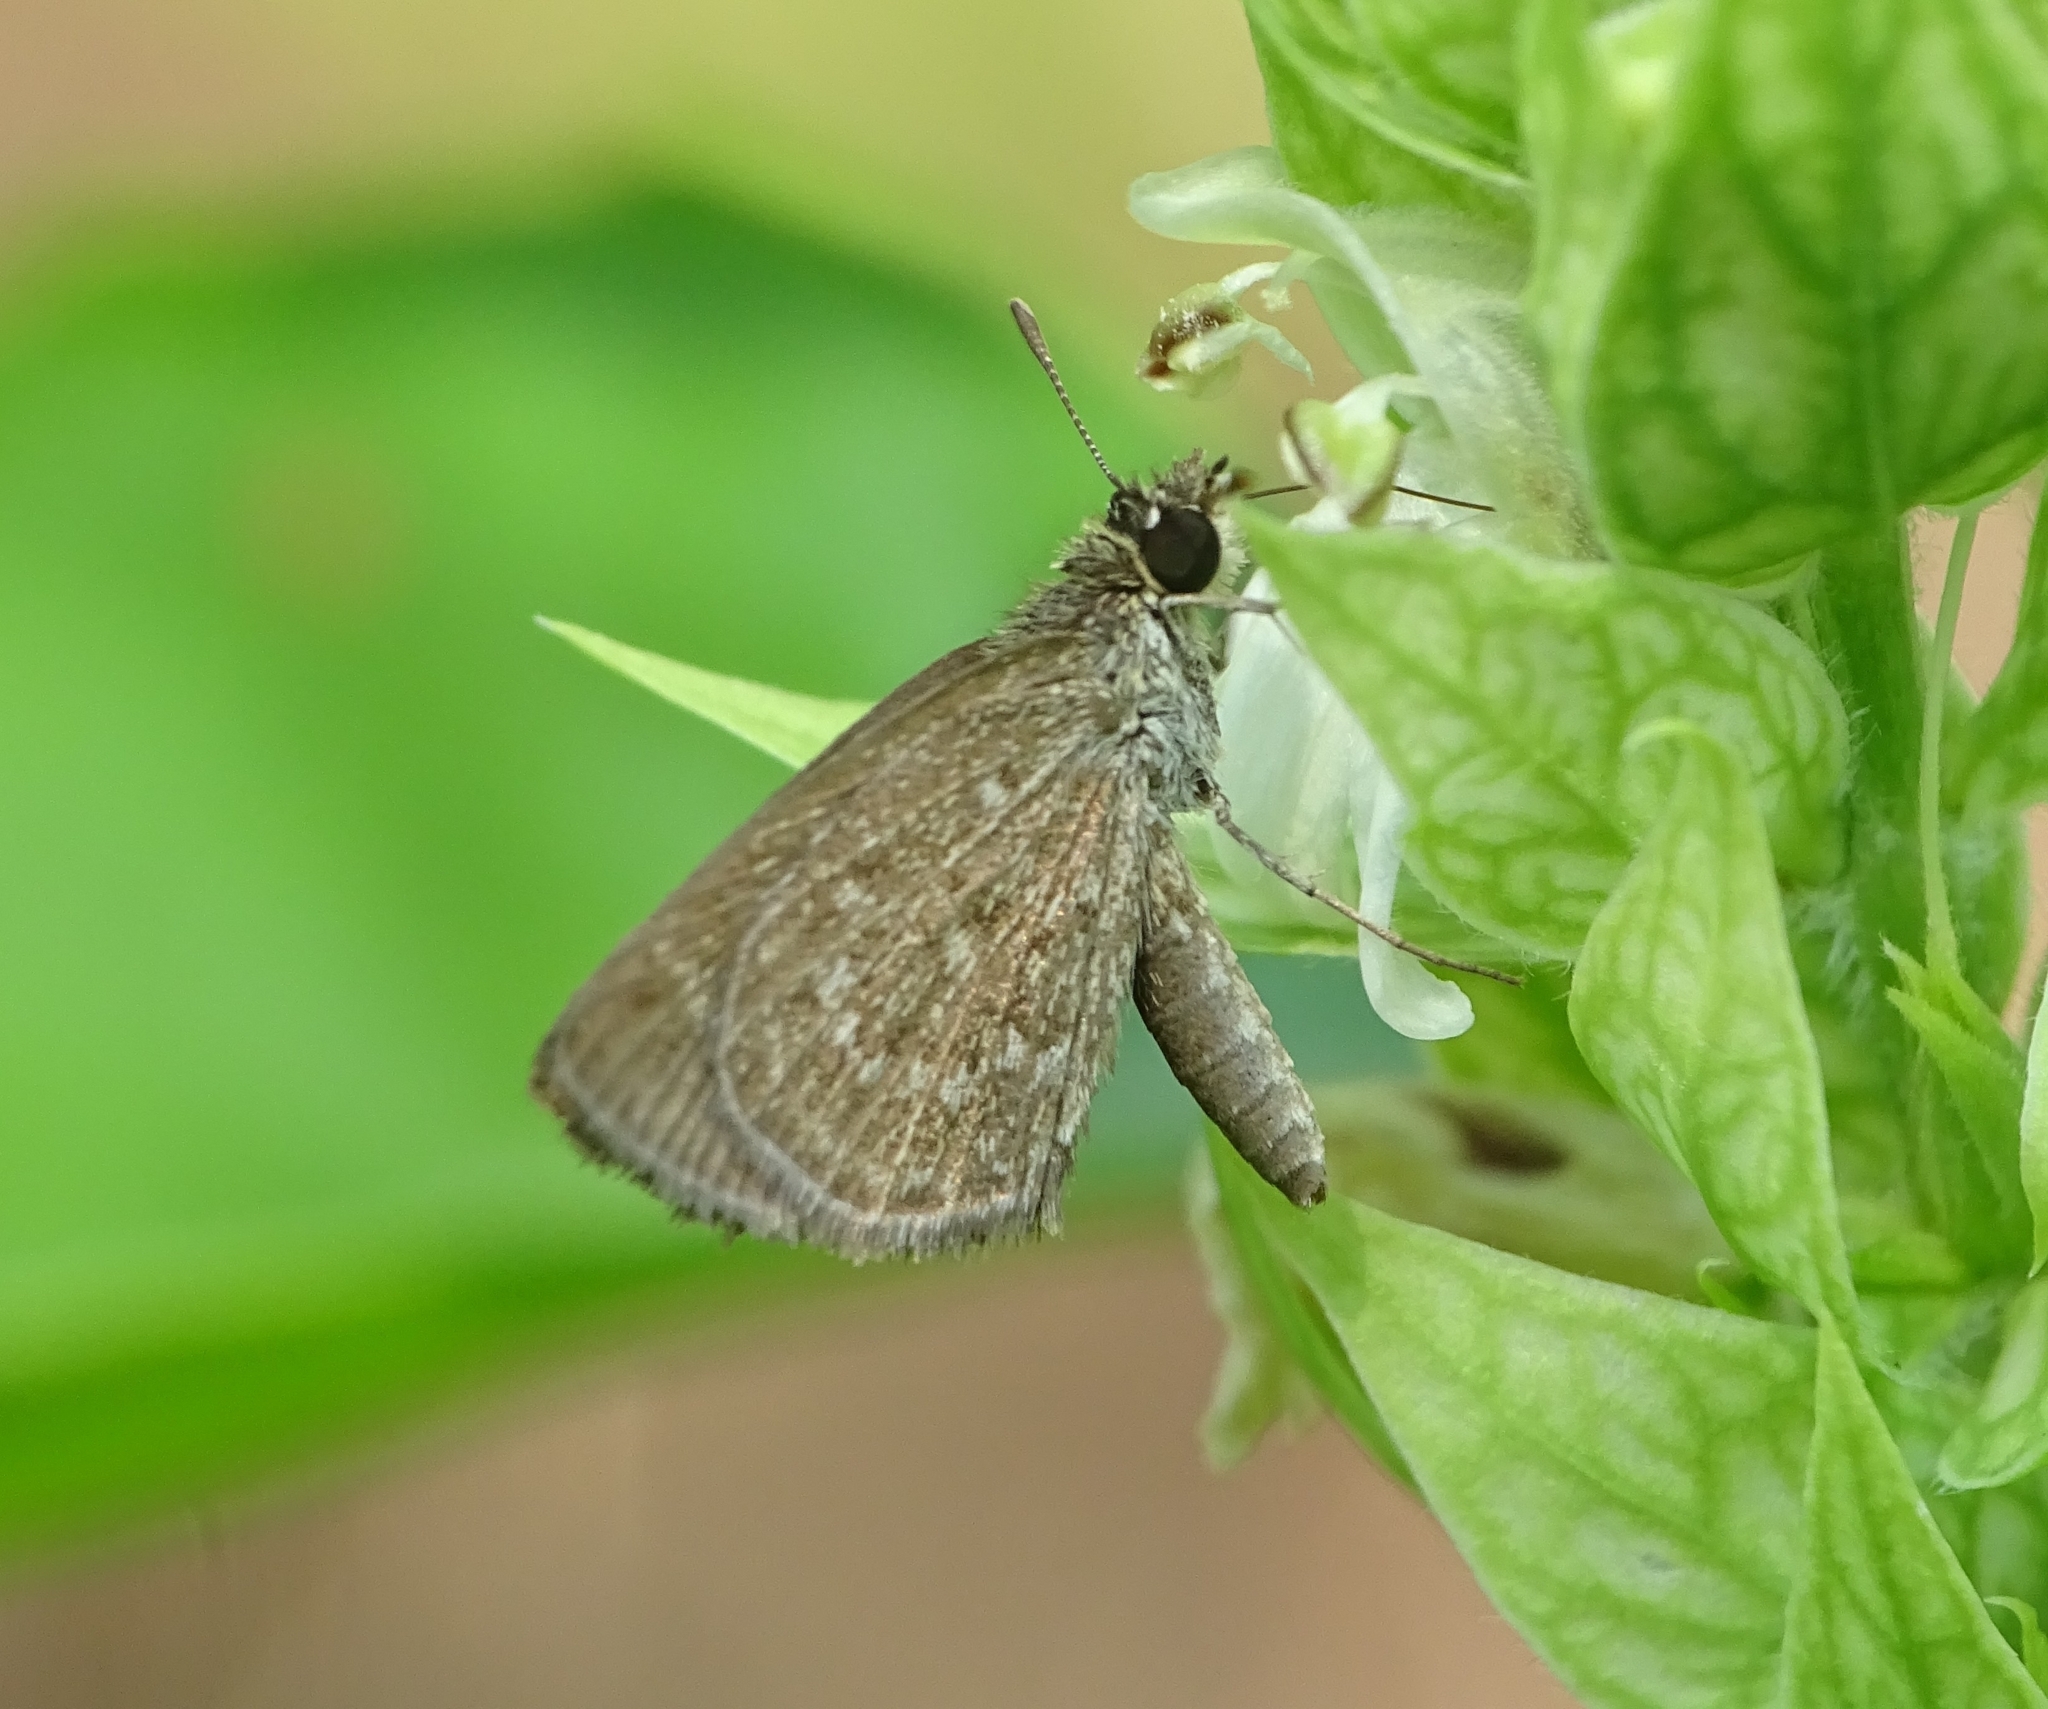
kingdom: Animalia
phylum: Arthropoda
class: Insecta
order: Lepidoptera
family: Hesperiidae
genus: Aeromachus
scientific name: Aeromachus pygmaeus
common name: Pygmy scrub hopper
